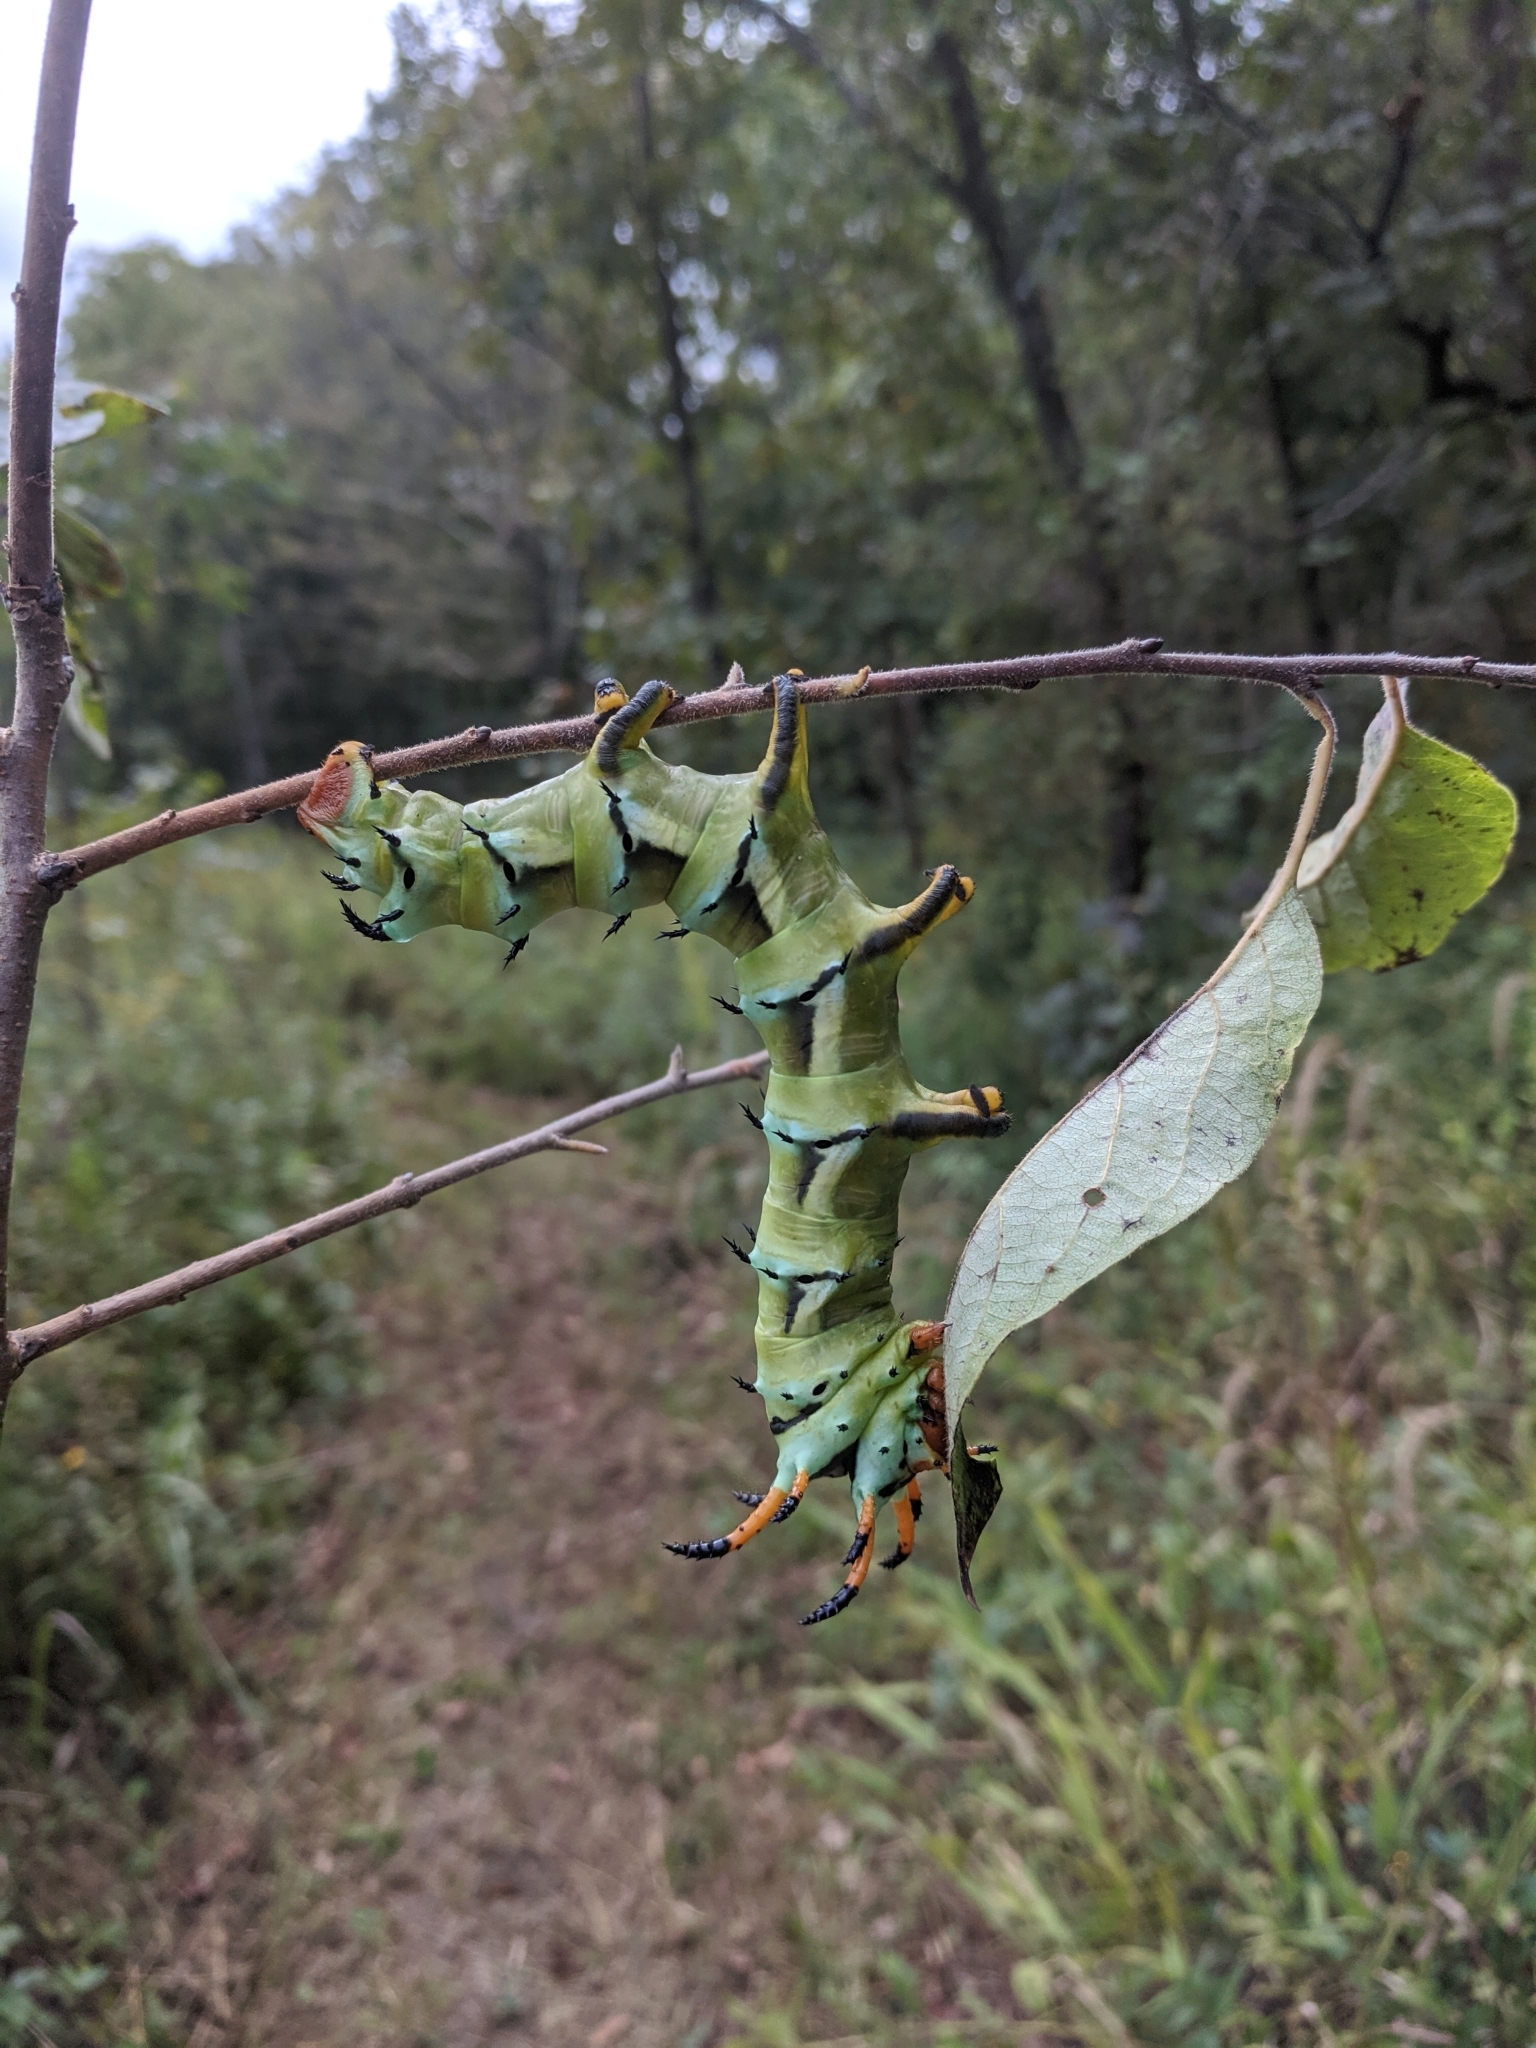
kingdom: Animalia
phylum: Arthropoda
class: Insecta
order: Lepidoptera
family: Saturniidae
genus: Citheronia
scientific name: Citheronia regalis
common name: Hickory horned devil
